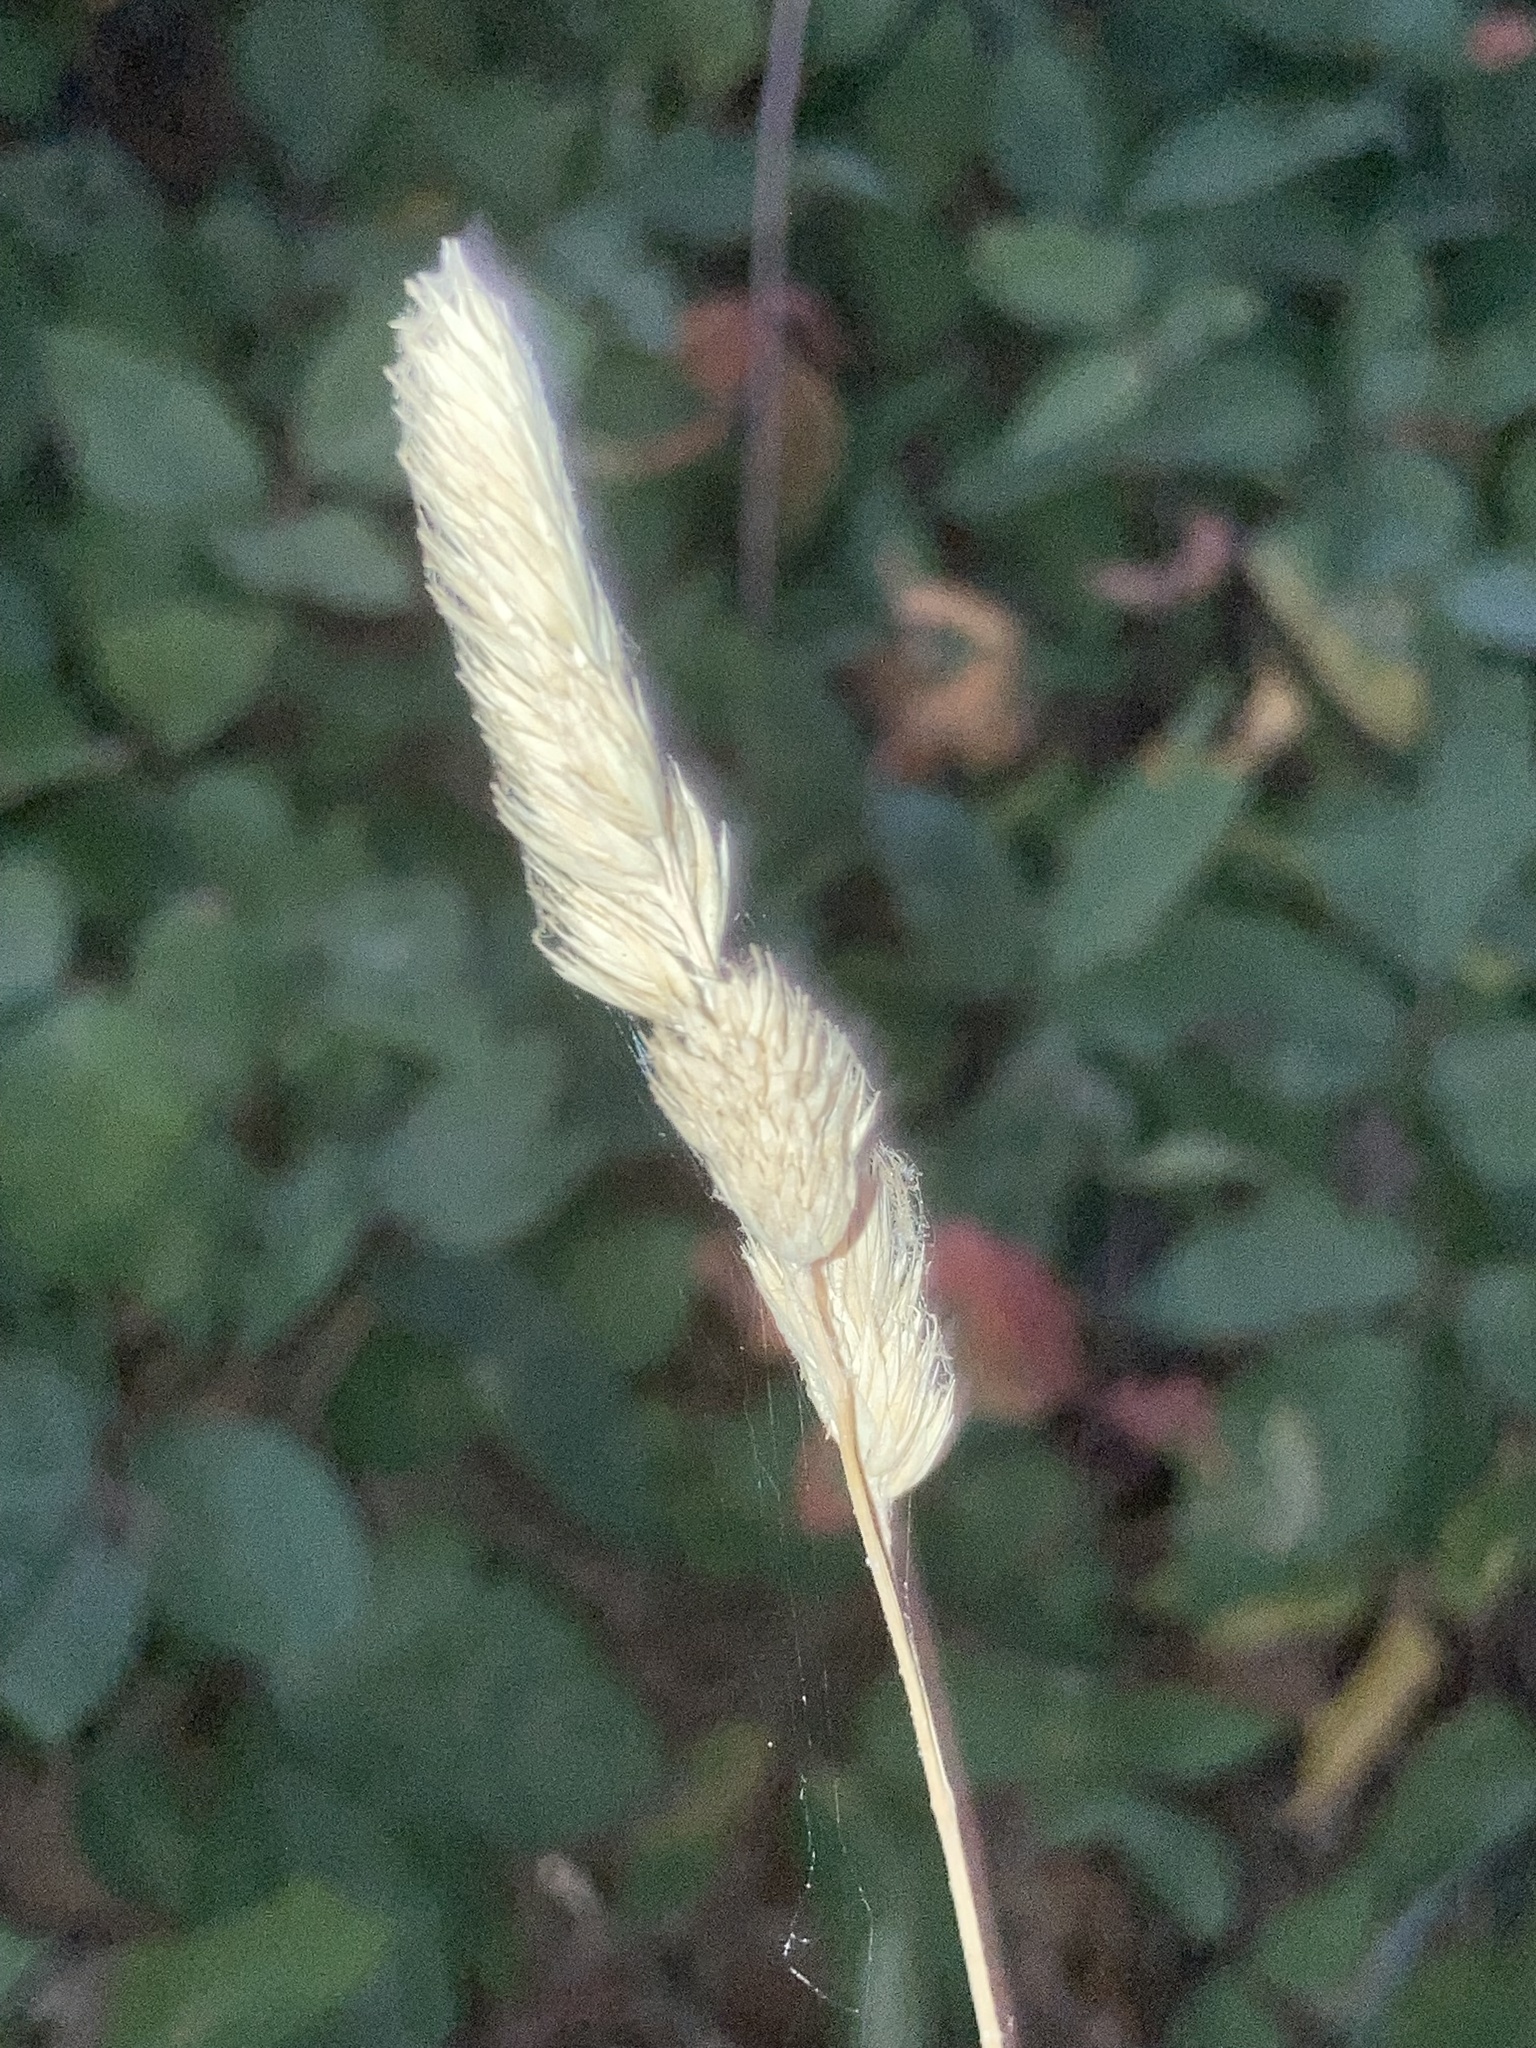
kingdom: Plantae
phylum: Tracheophyta
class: Liliopsida
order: Poales
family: Poaceae
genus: Dactylis
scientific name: Dactylis glomerata
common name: Orchardgrass
